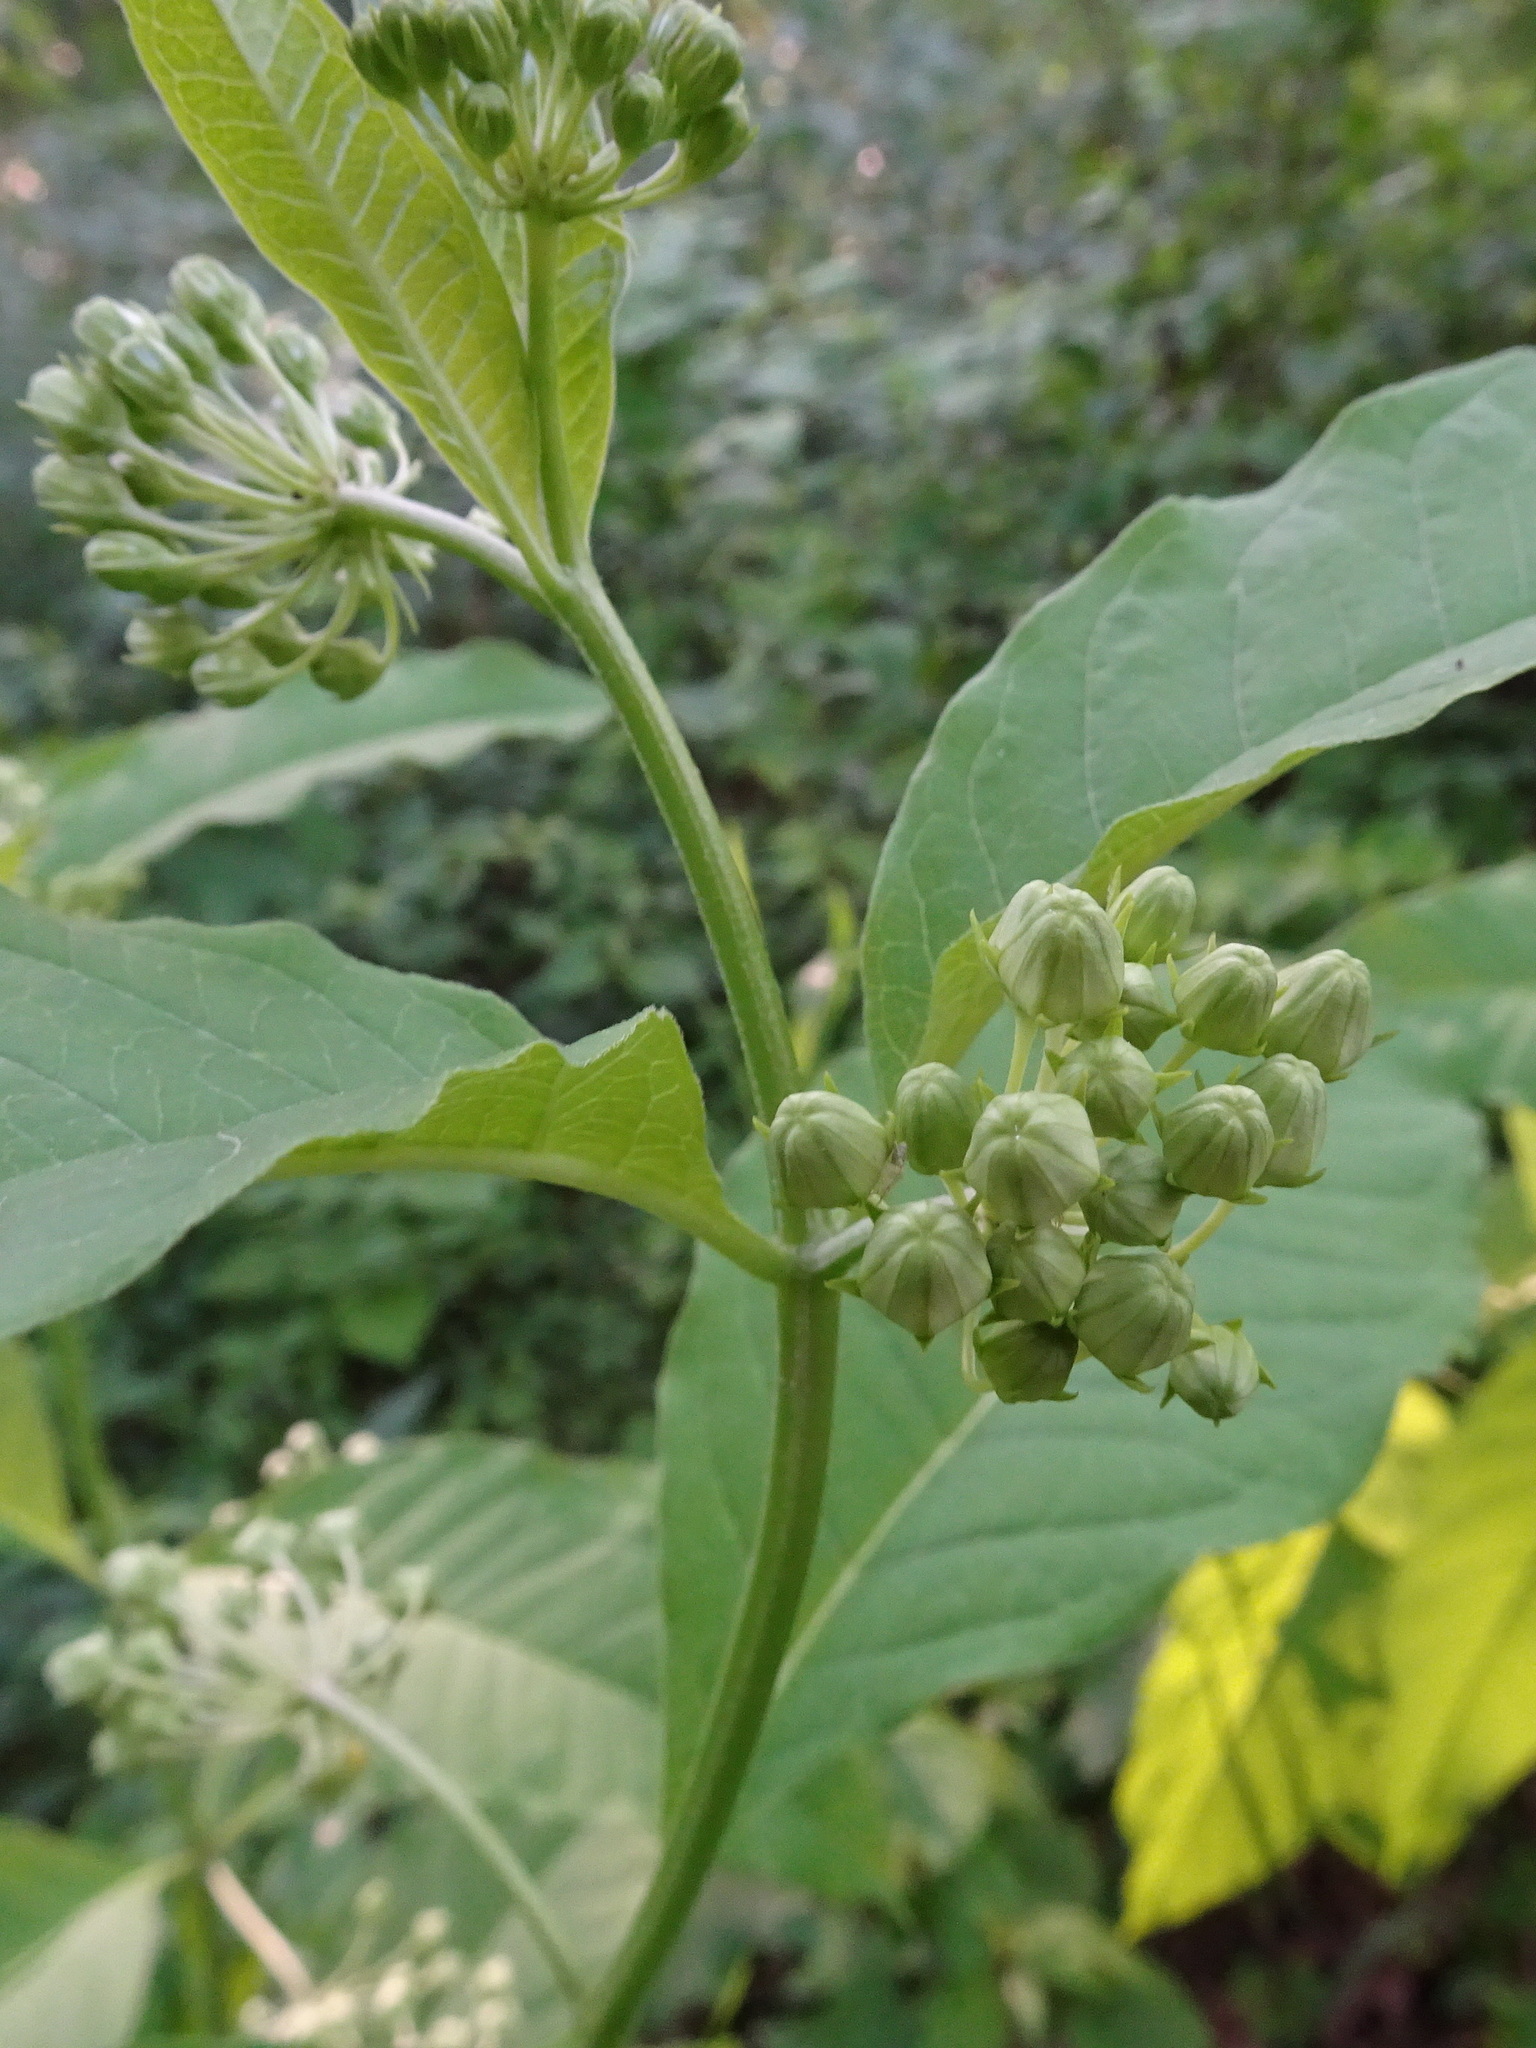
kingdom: Plantae
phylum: Tracheophyta
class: Magnoliopsida
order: Gentianales
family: Apocynaceae
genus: Asclepias
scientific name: Asclepias exaltata
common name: Poke milkweed
